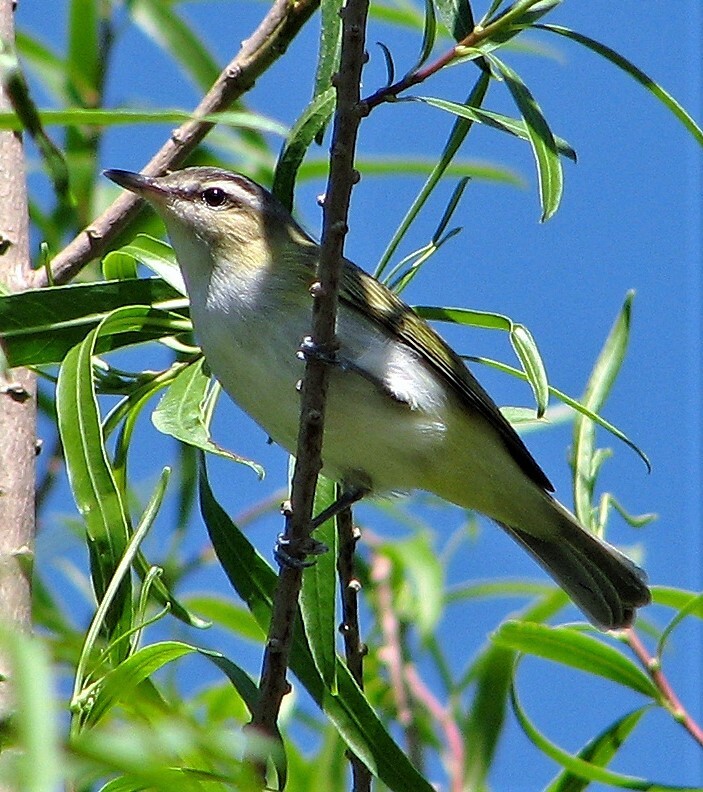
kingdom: Animalia
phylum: Chordata
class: Aves
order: Passeriformes
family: Vireonidae
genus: Vireo
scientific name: Vireo olivaceus
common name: Red-eyed vireo
